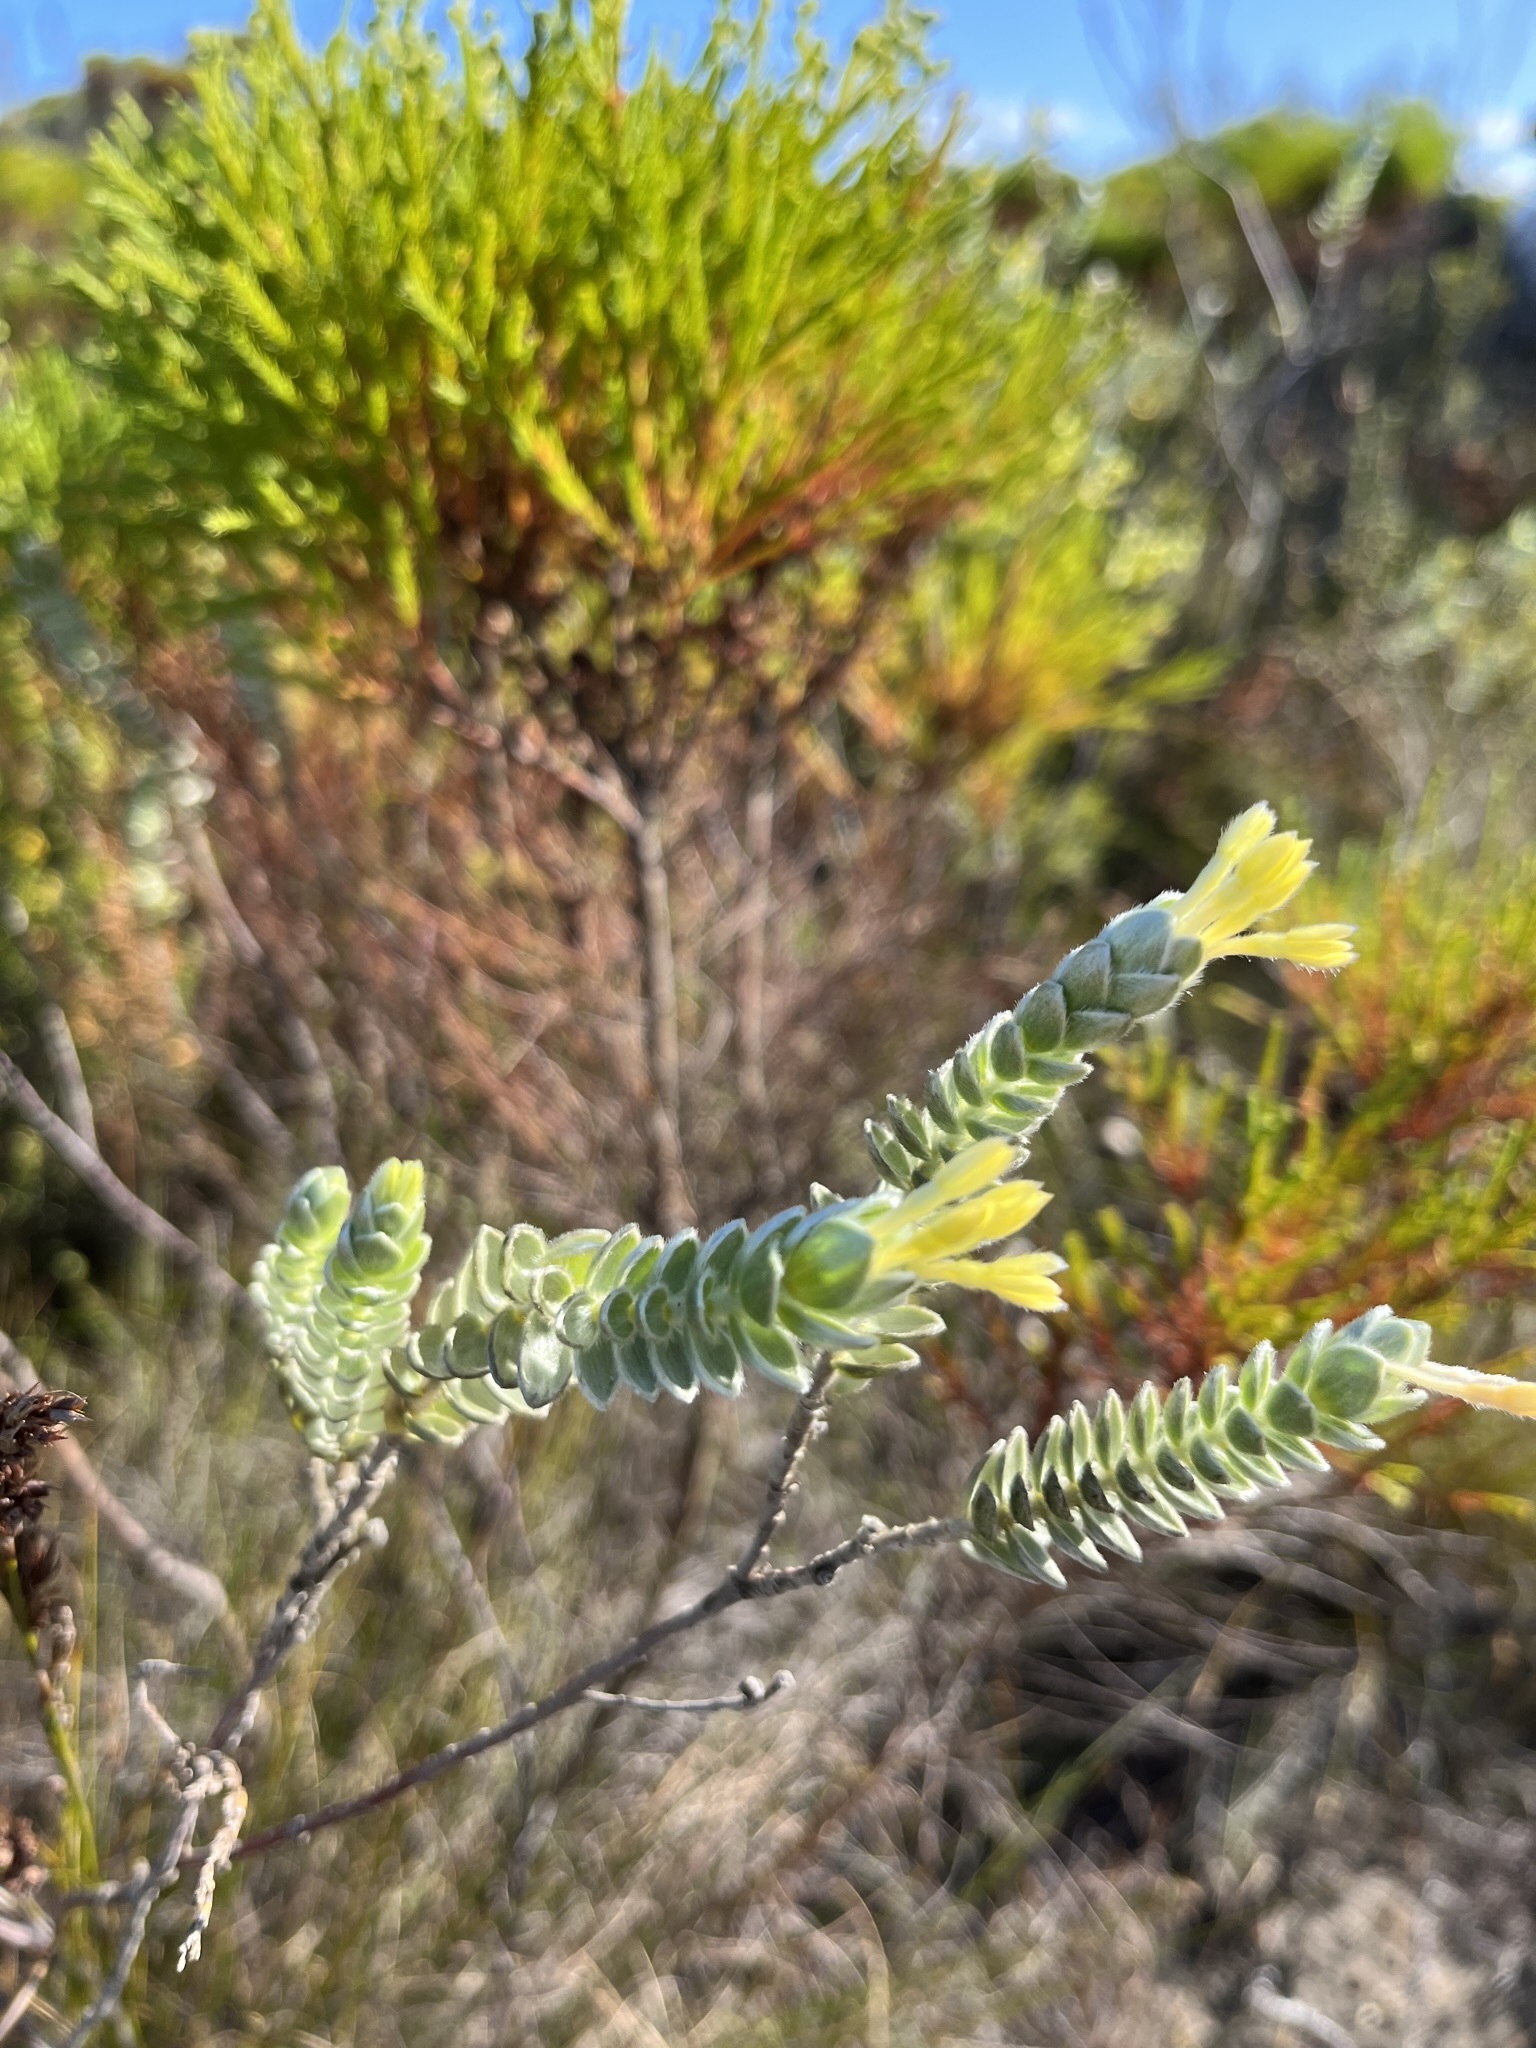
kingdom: Plantae
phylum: Tracheophyta
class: Magnoliopsida
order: Malvales
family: Thymelaeaceae
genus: Gnidia
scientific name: Gnidia anomala
